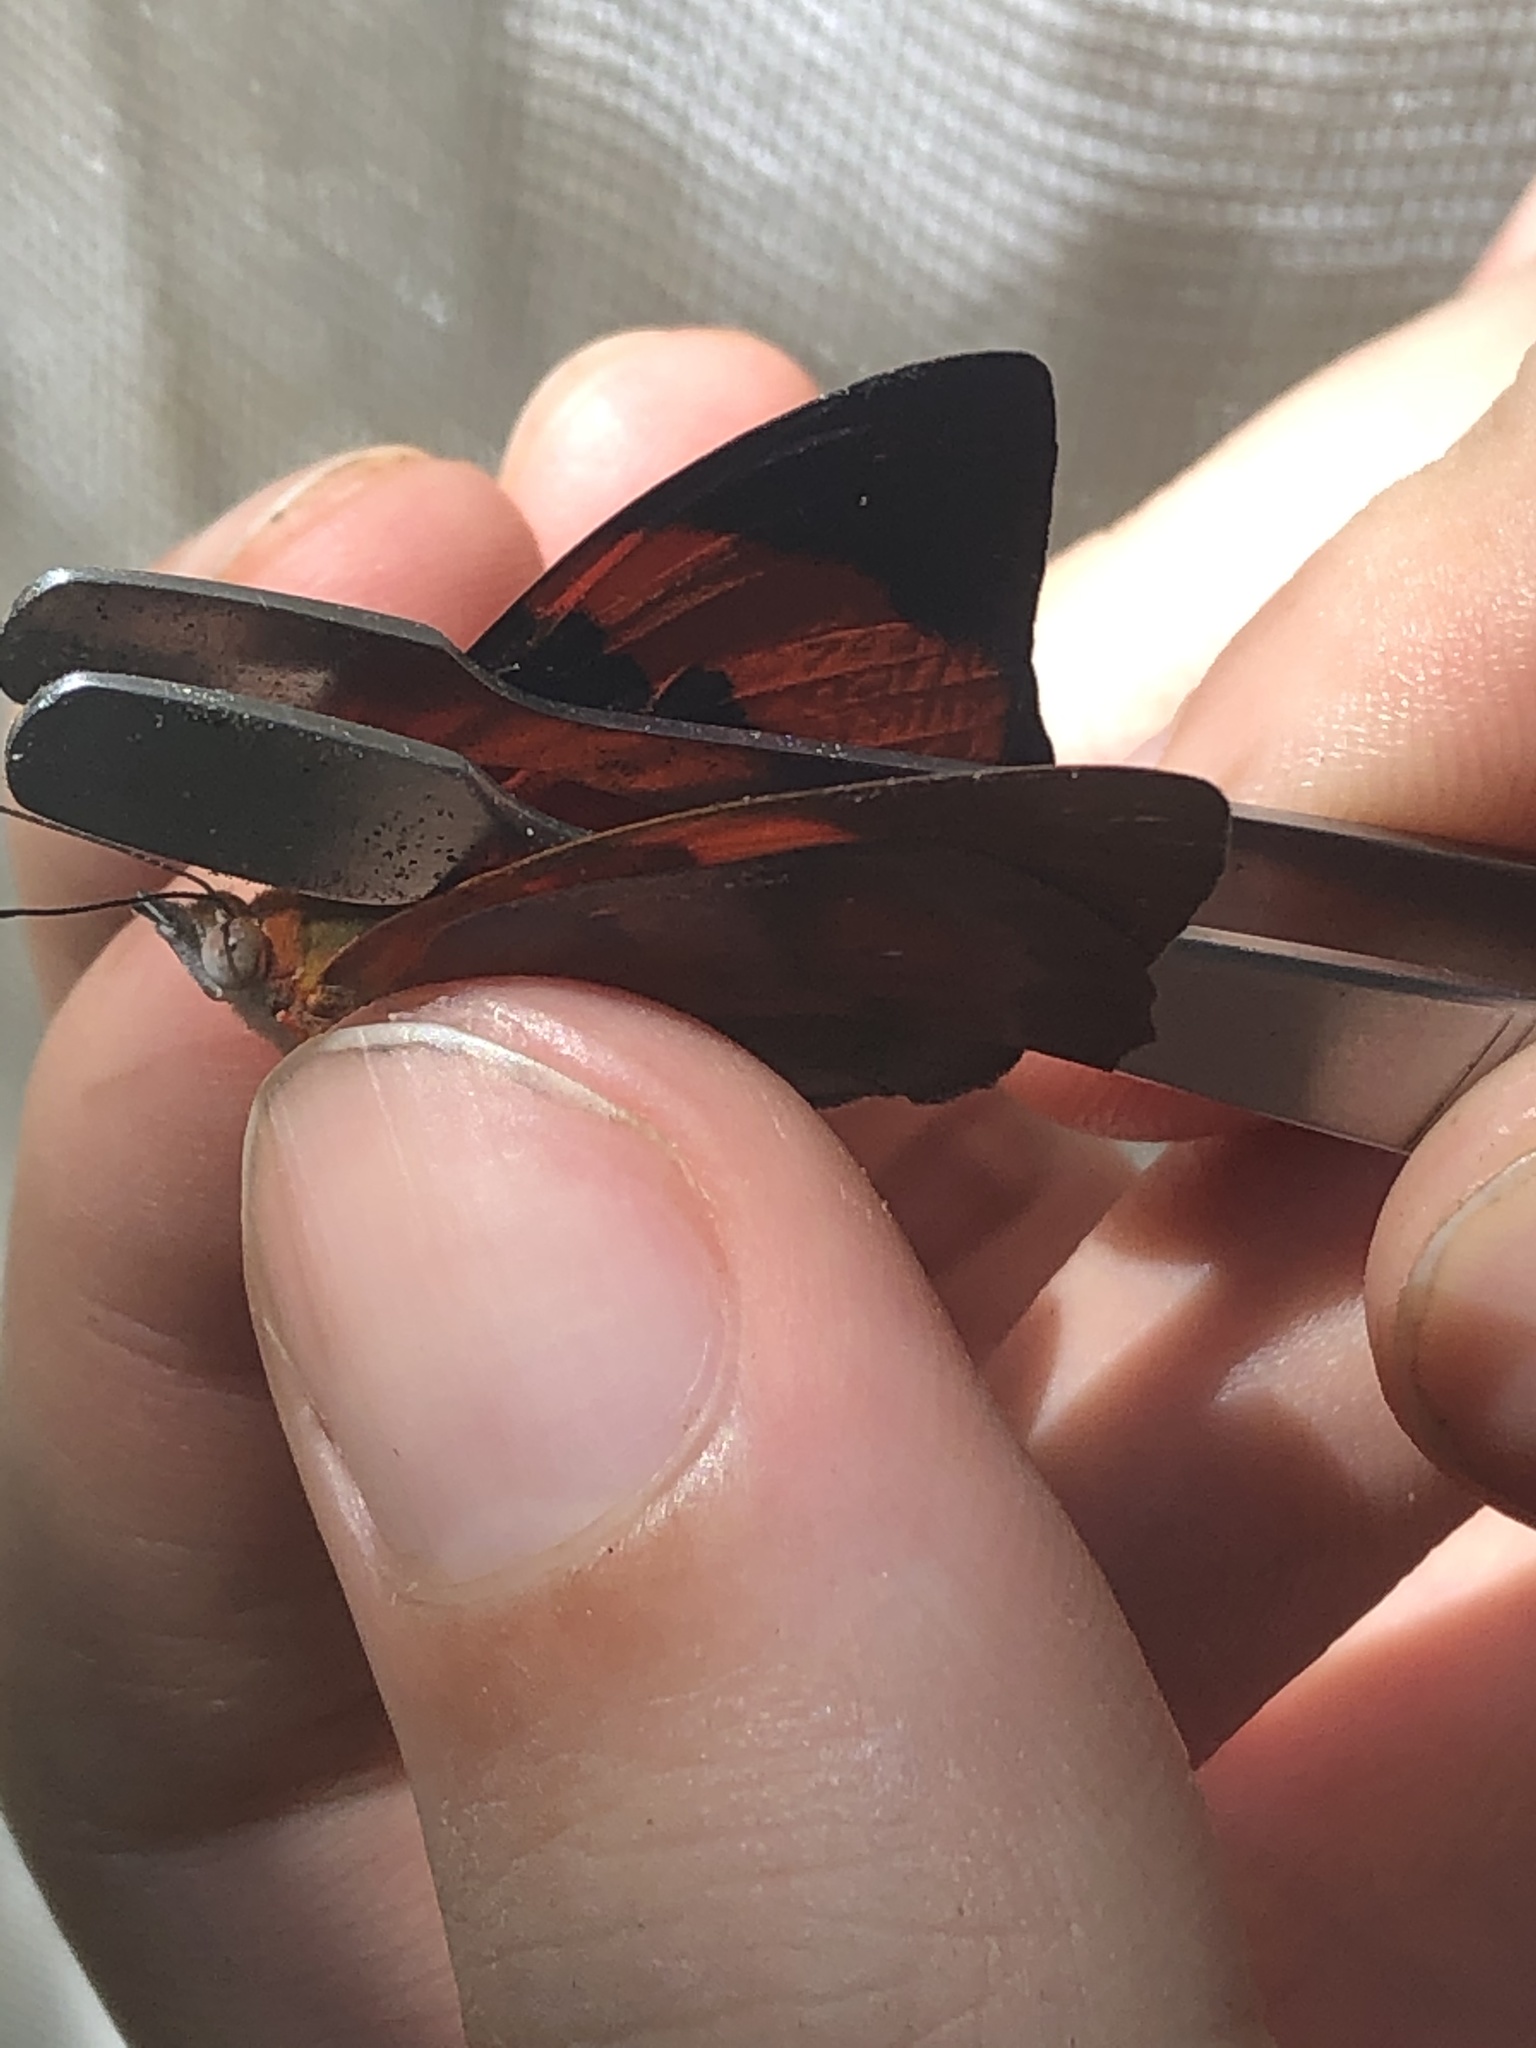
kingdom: Animalia
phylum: Arthropoda
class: Insecta
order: Lepidoptera
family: Nymphalidae
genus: Temenis
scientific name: Temenis pulchra
